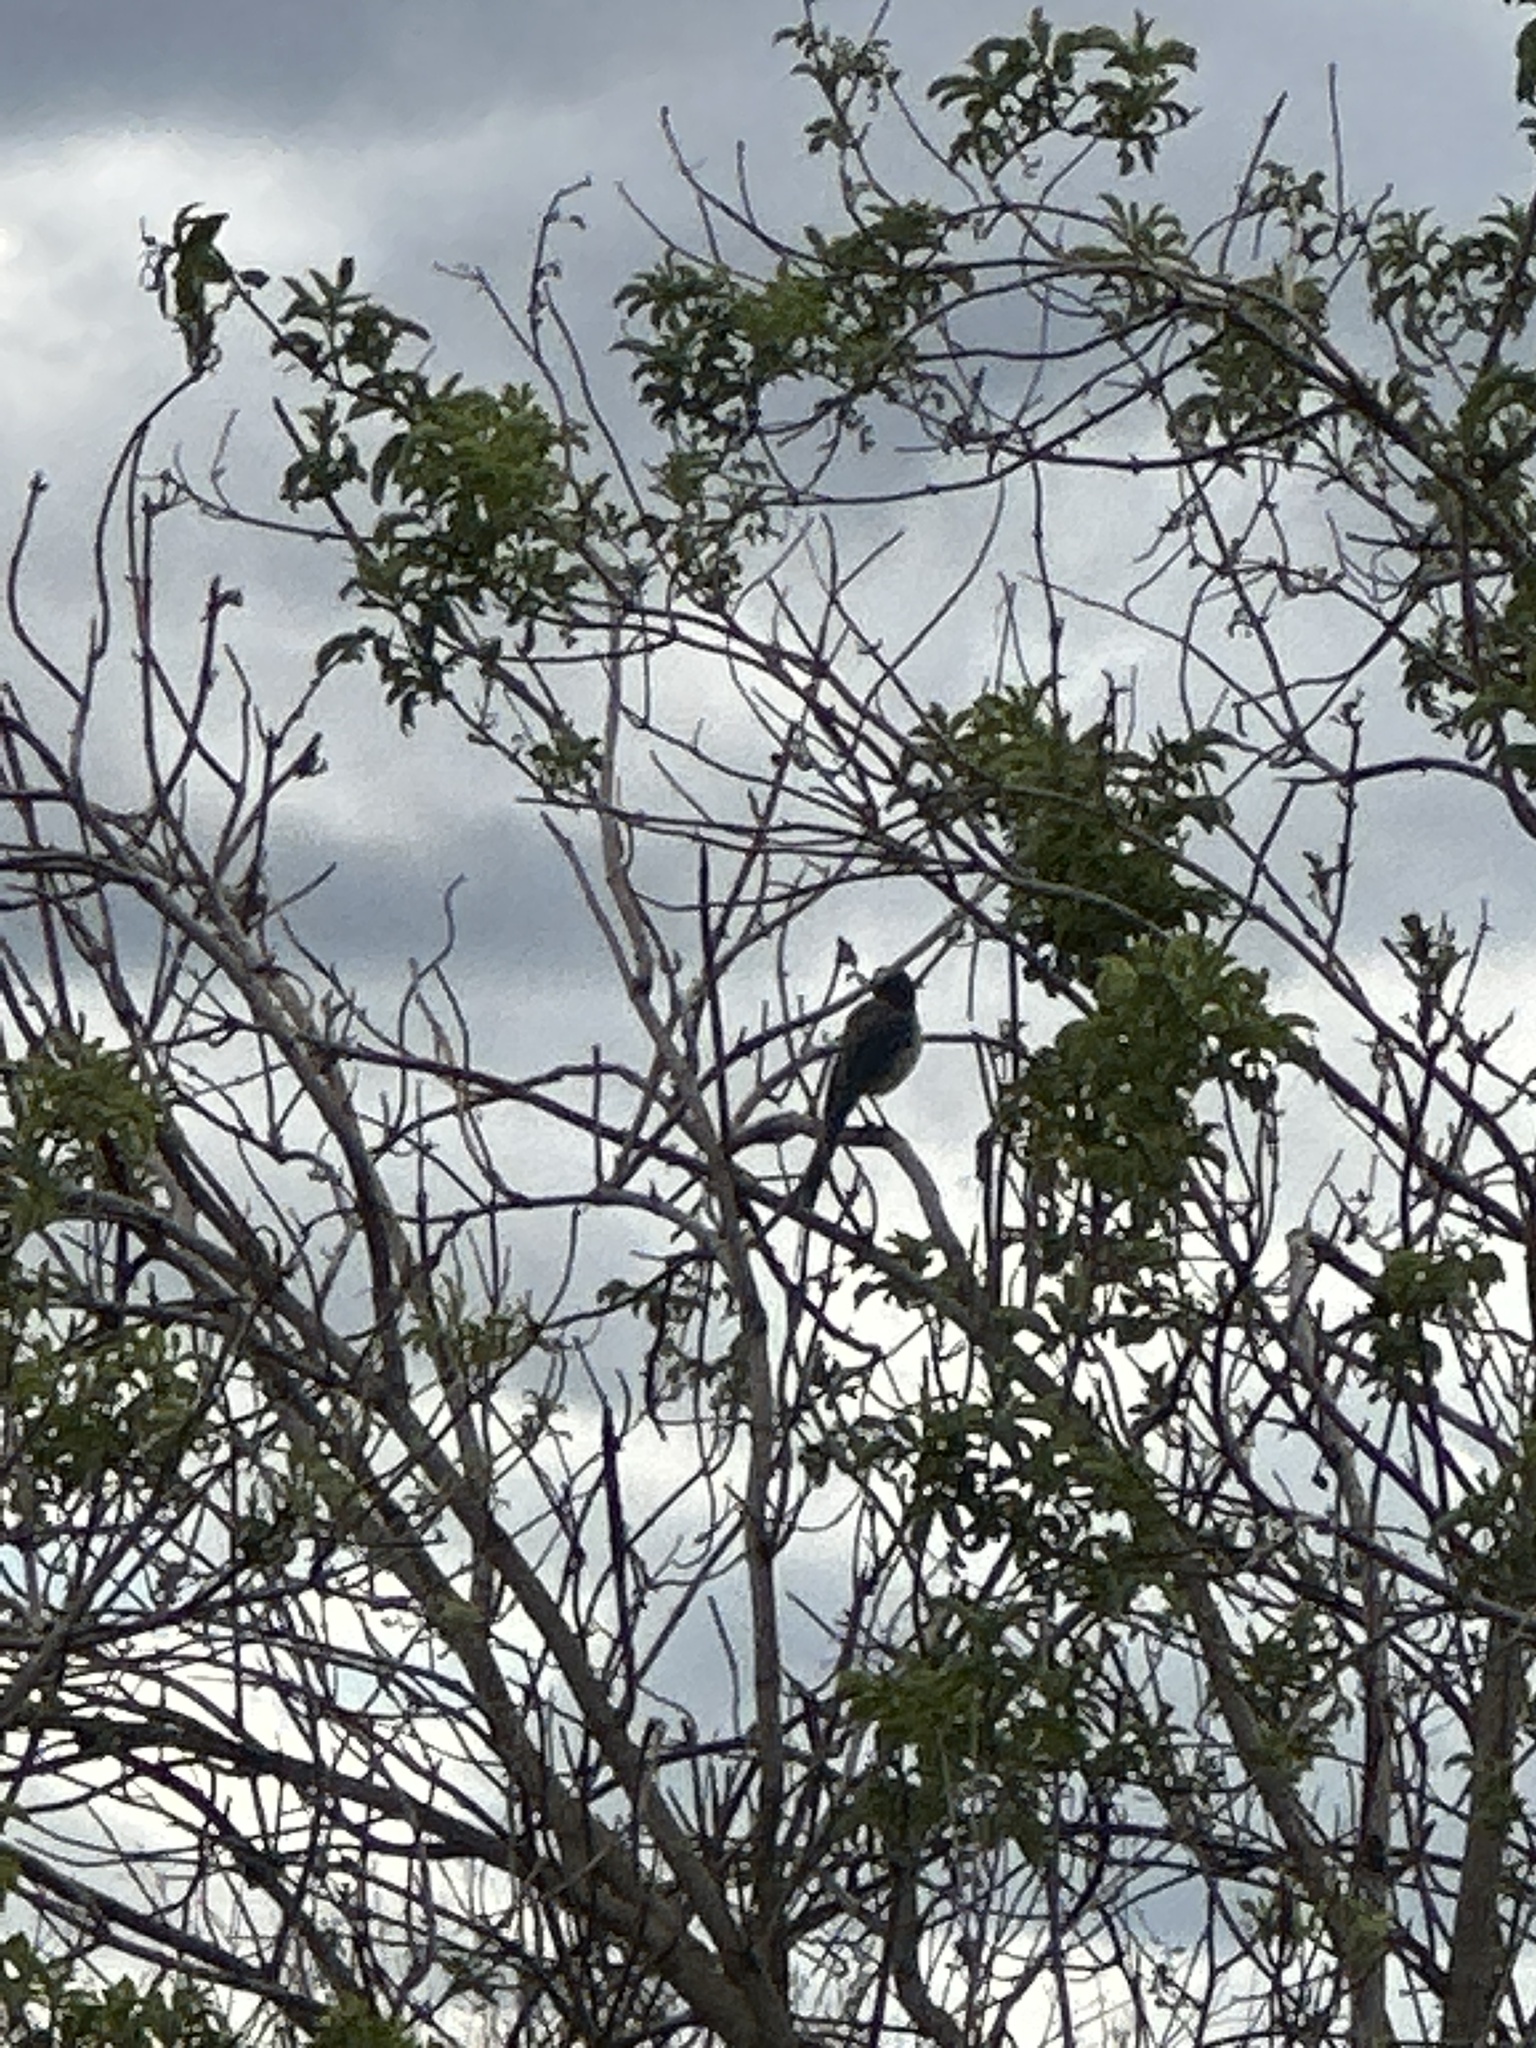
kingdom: Animalia
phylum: Chordata
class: Aves
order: Passeriformes
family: Corvidae
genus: Aphelocoma
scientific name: Aphelocoma californica
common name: California scrub-jay
